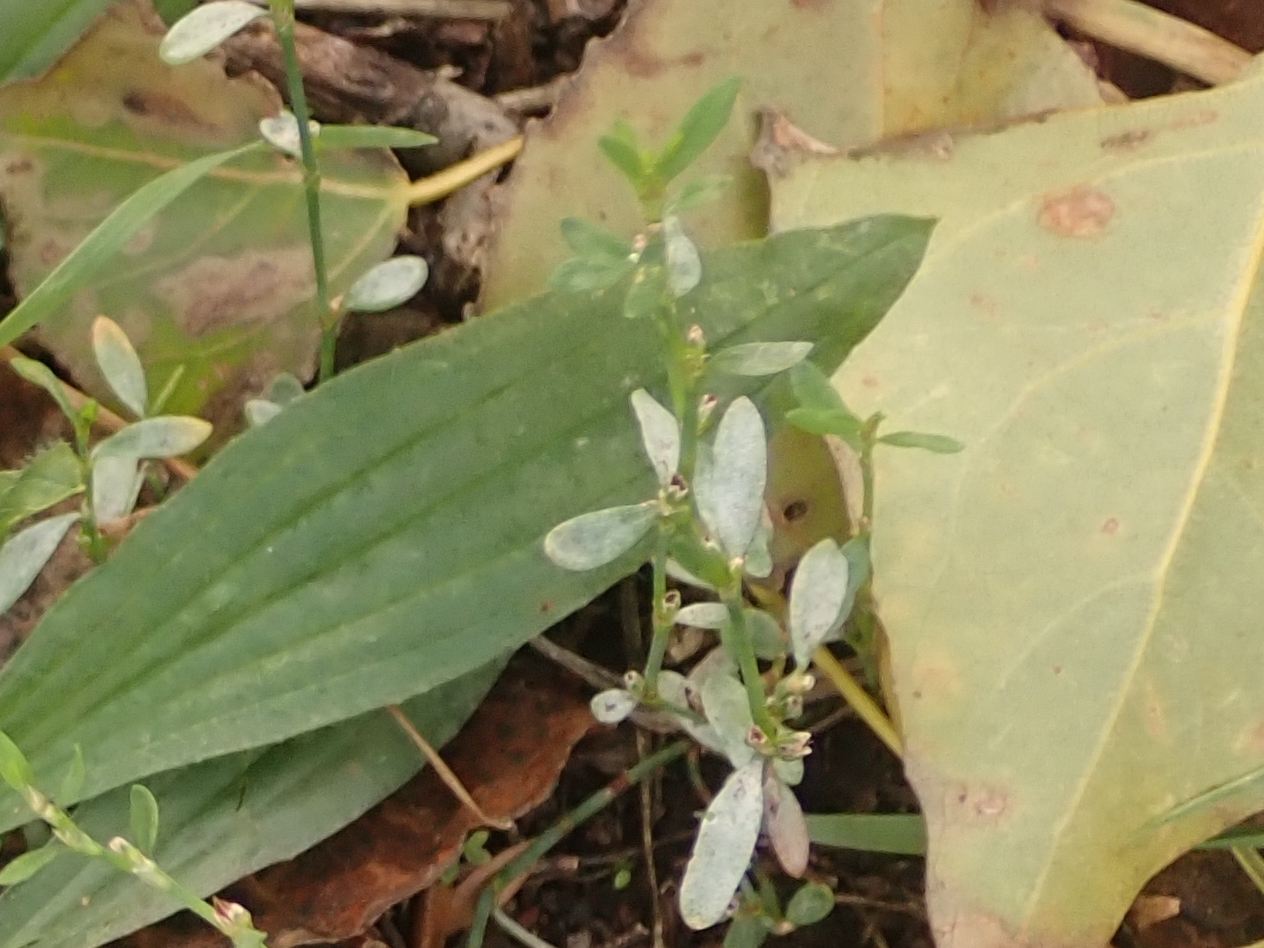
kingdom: Fungi
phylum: Ascomycota
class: Leotiomycetes
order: Helotiales
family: Erysiphaceae
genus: Erysiphe
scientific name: Erysiphe polygoni
